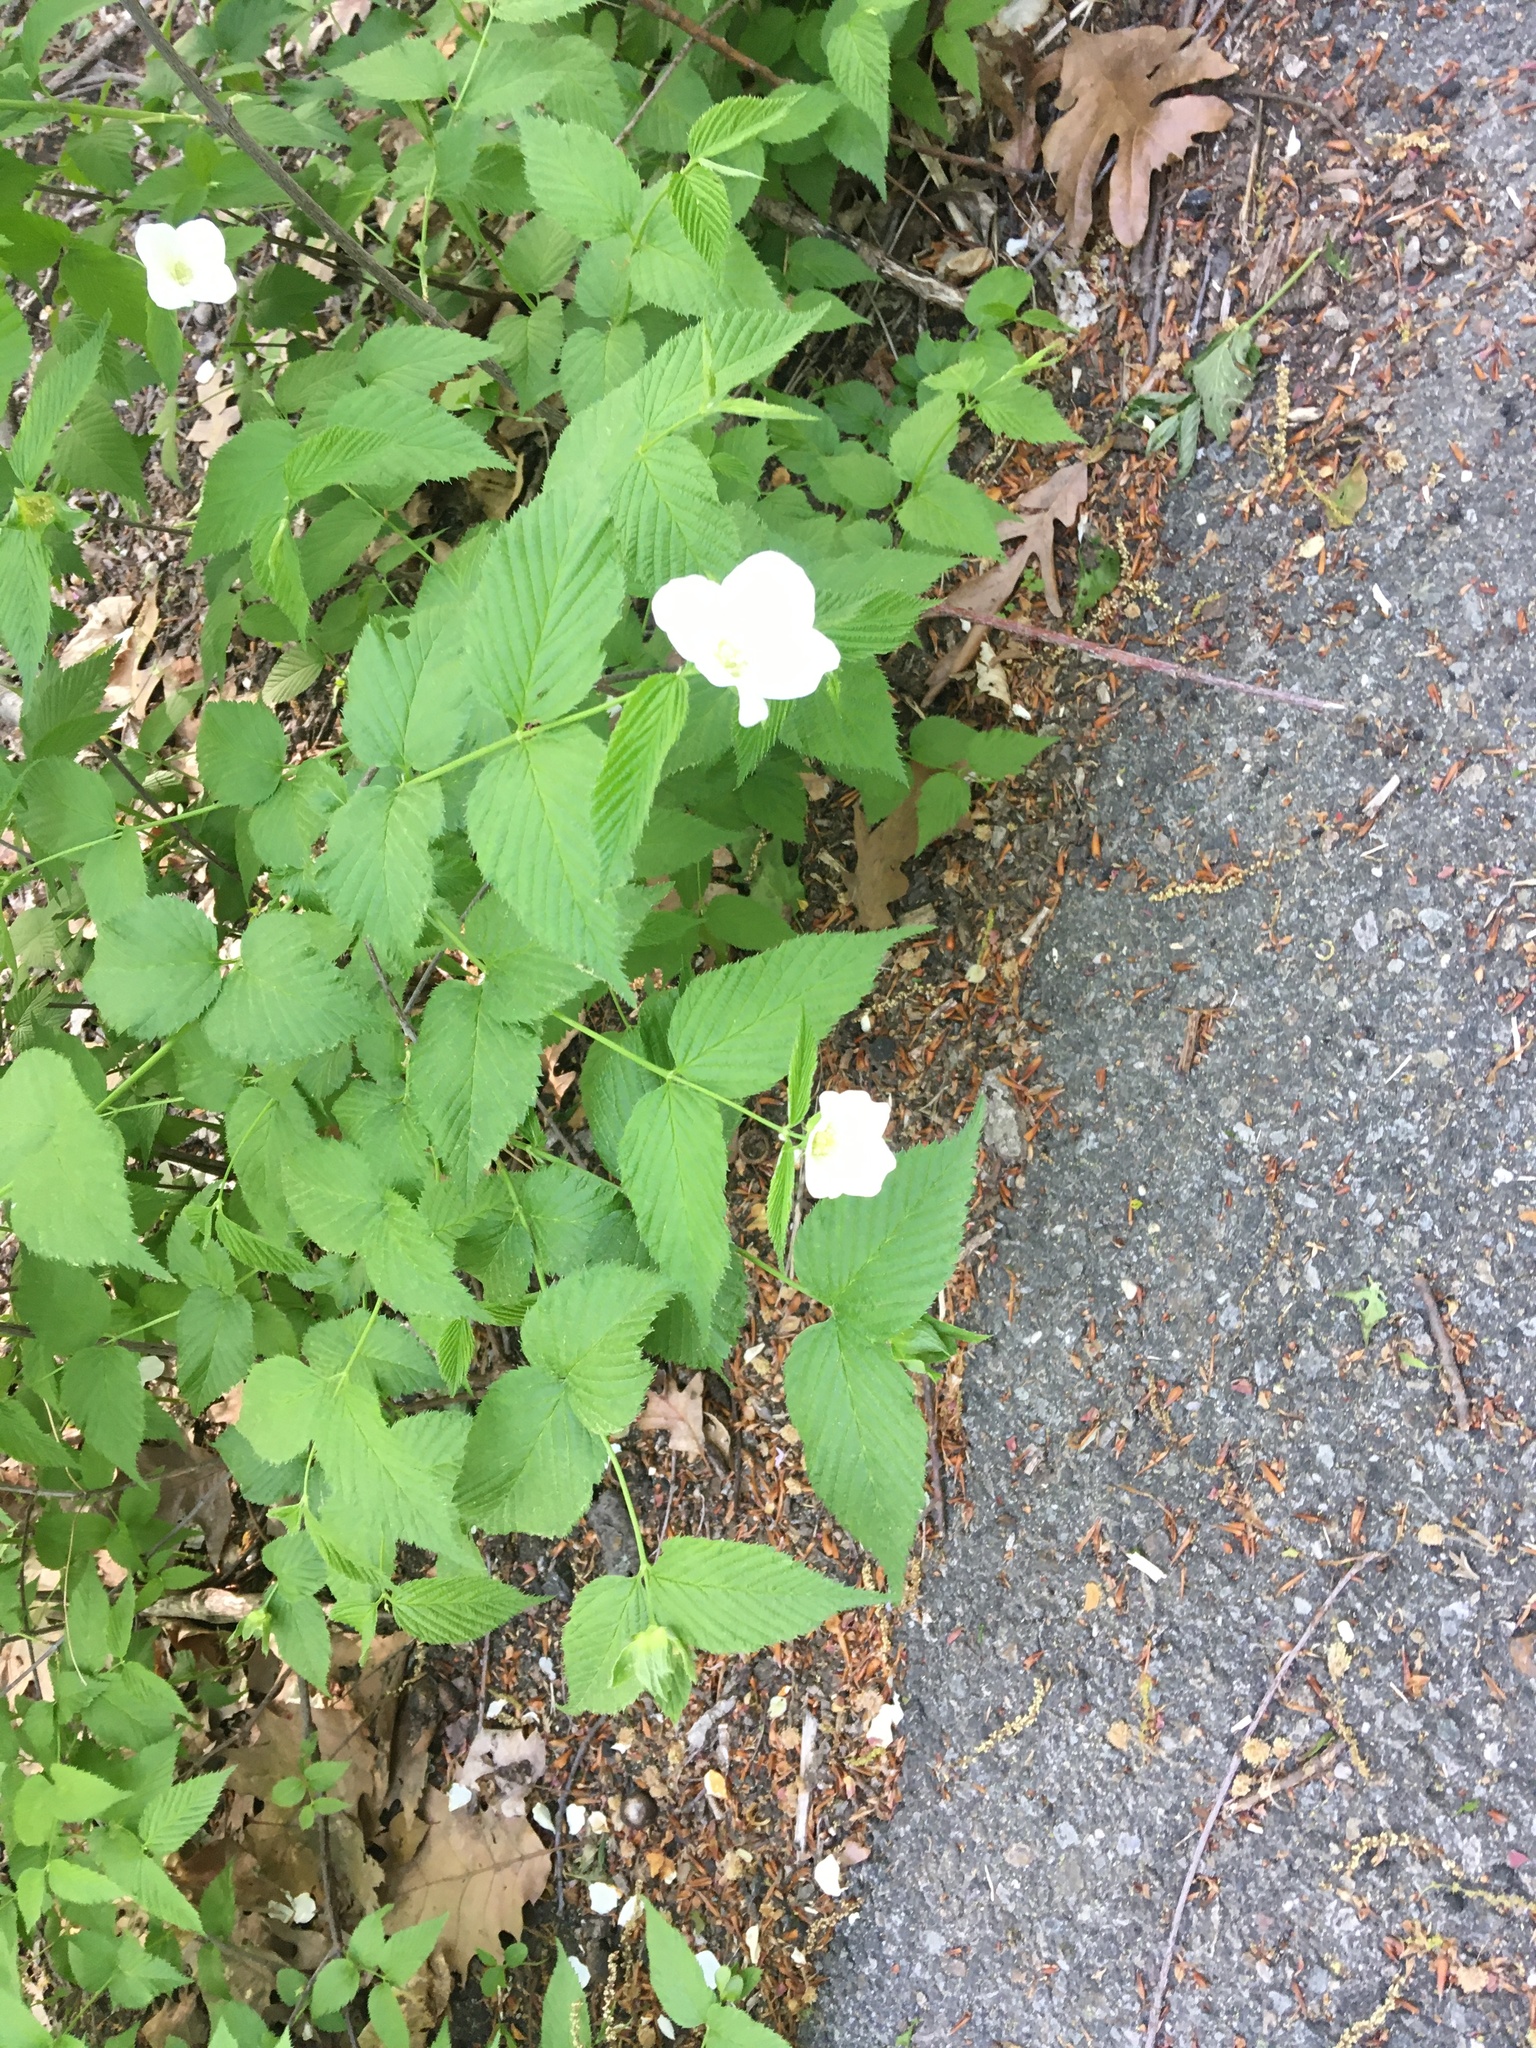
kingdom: Plantae
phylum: Tracheophyta
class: Magnoliopsida
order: Rosales
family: Rosaceae
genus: Rhodotypos
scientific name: Rhodotypos scandens
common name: Jetbead
